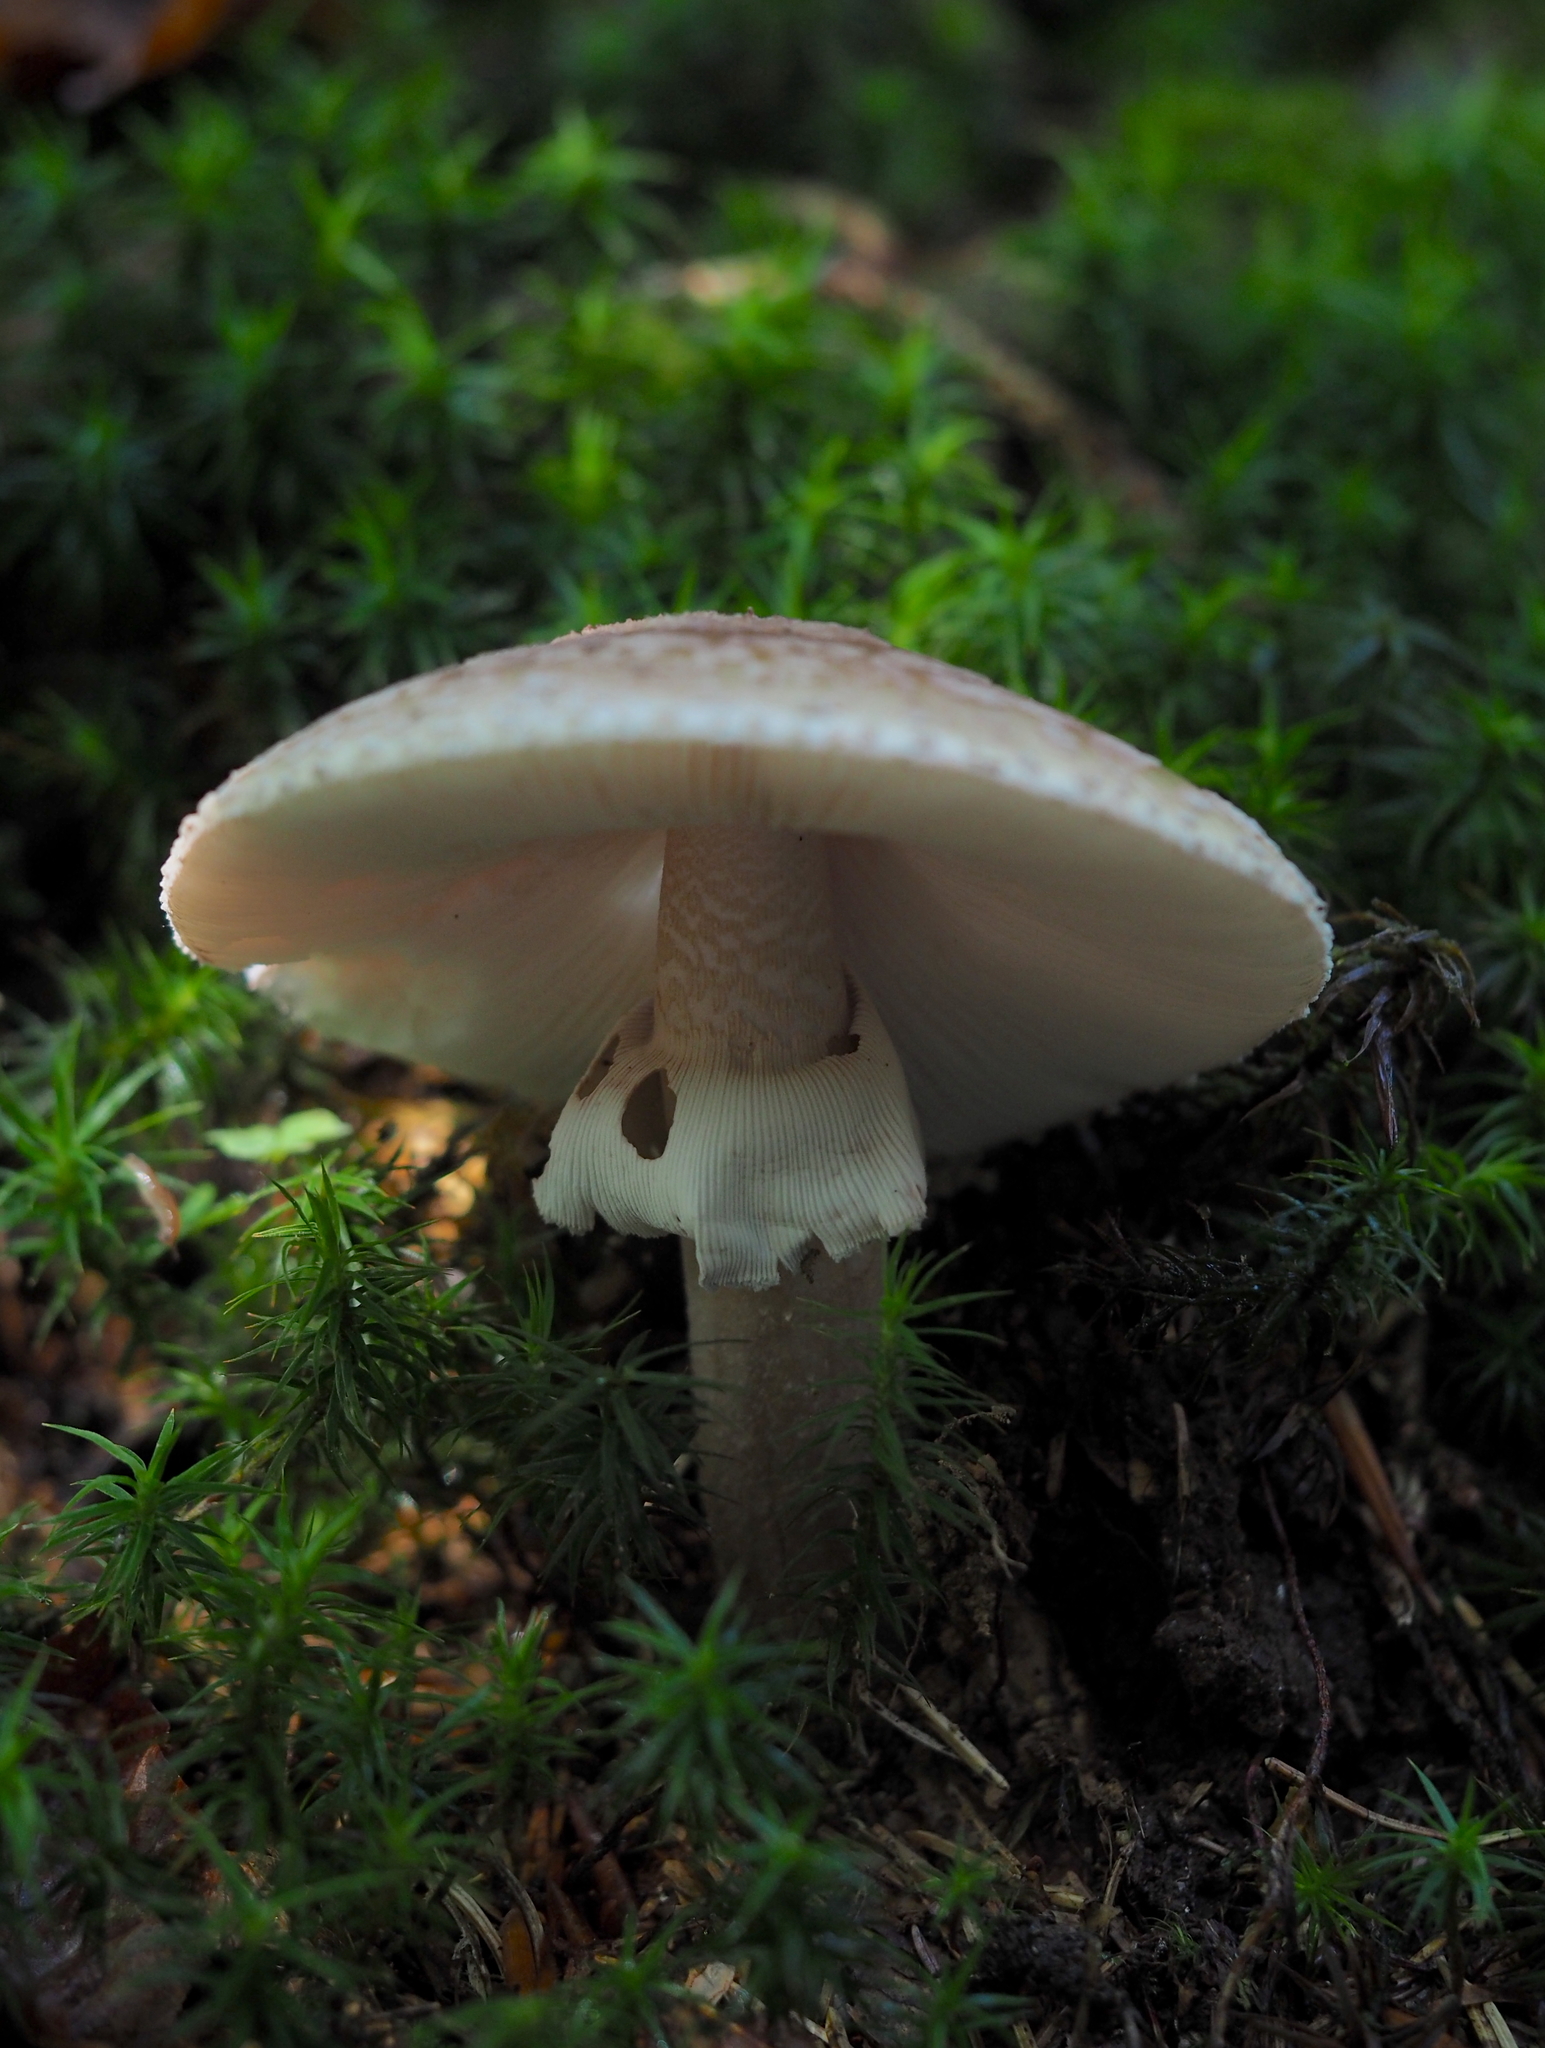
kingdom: Fungi
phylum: Basidiomycota
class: Agaricomycetes
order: Agaricales
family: Amanitaceae
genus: Amanita
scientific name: Amanita rubescens
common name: Blusher
